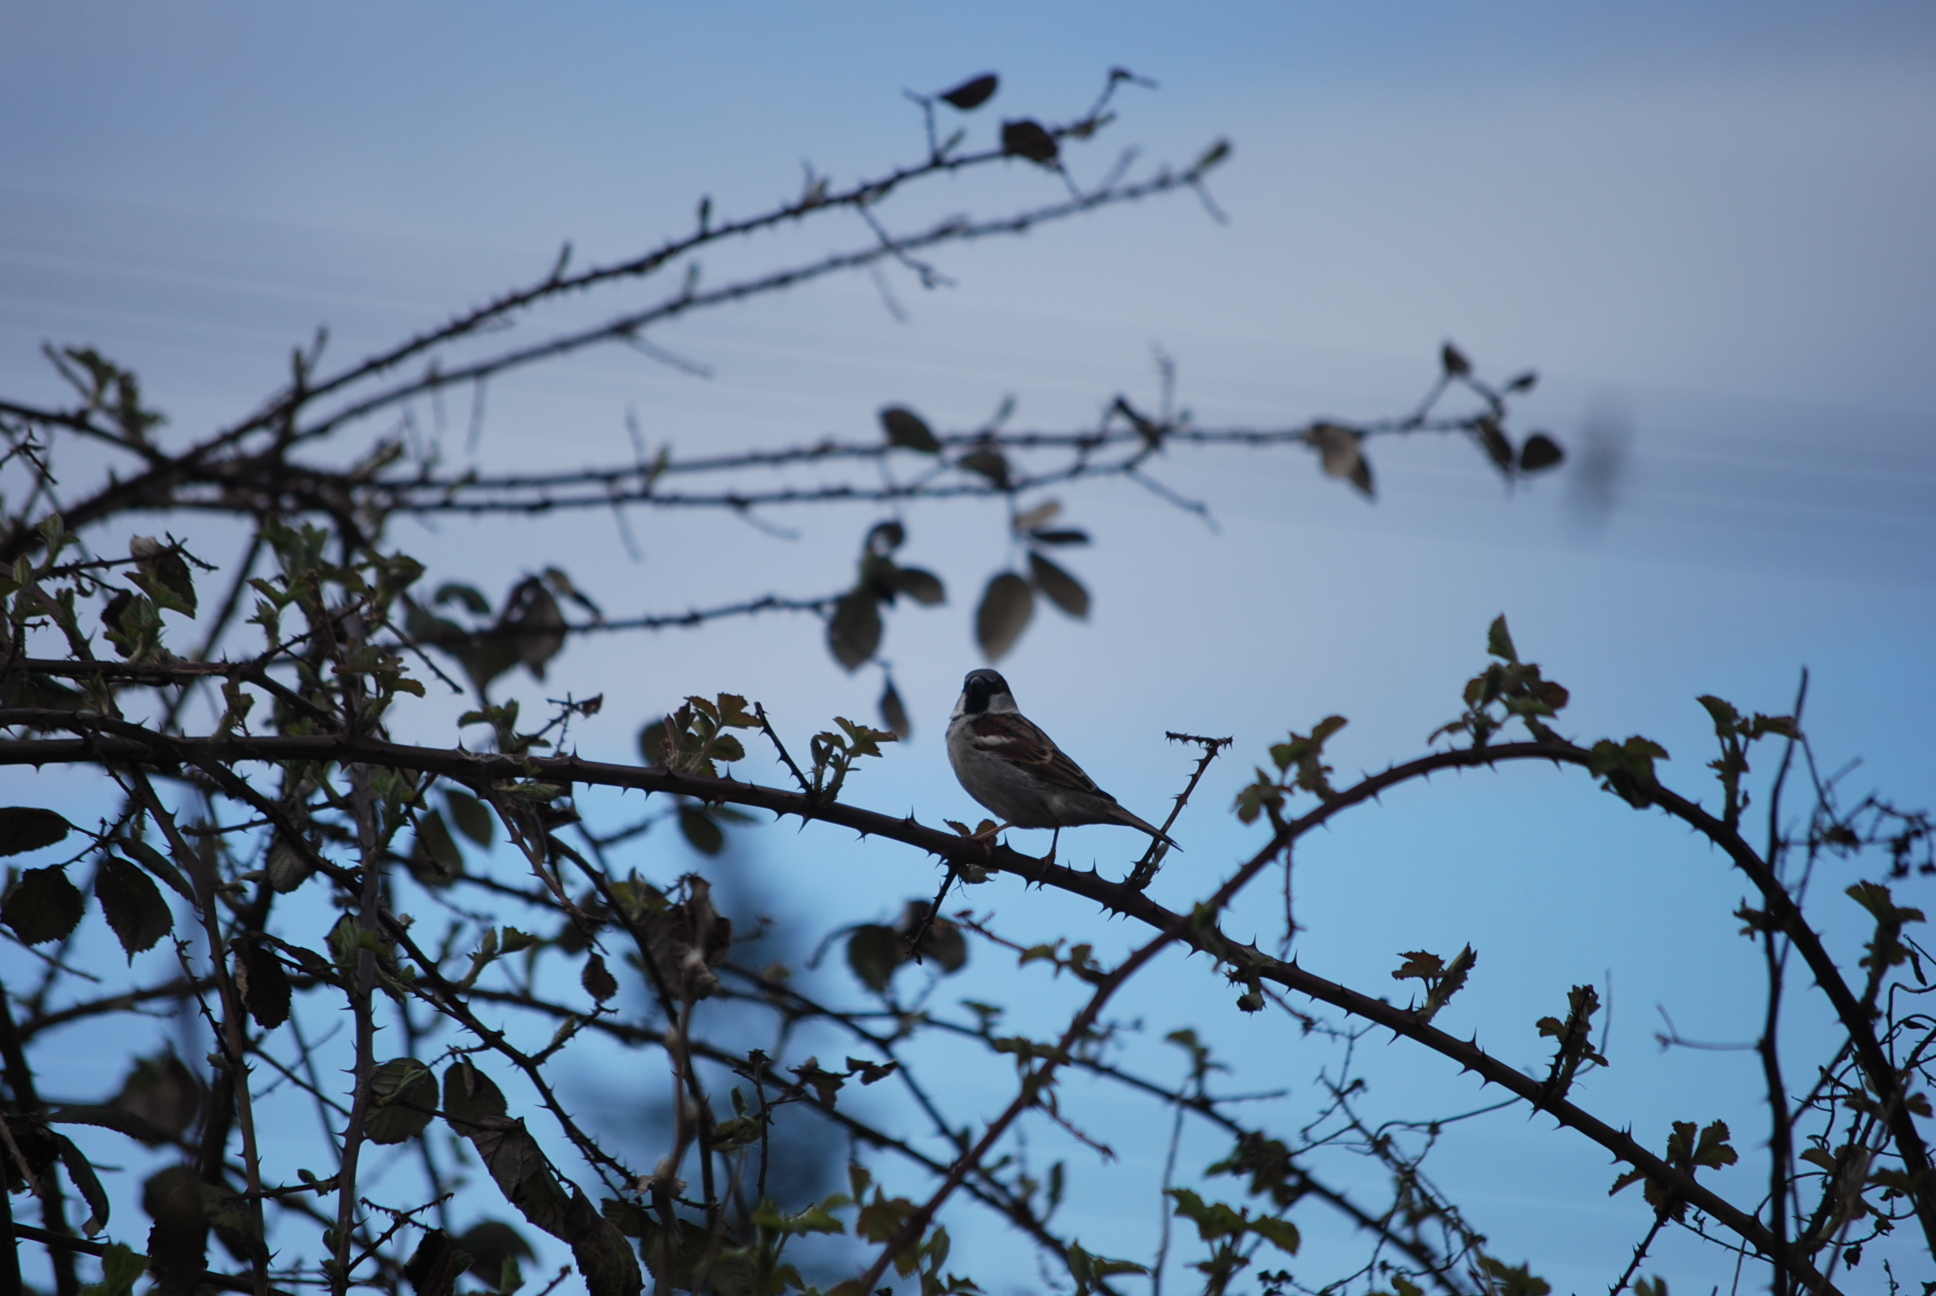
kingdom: Animalia
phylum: Chordata
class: Aves
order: Passeriformes
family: Passeridae
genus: Passer
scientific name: Passer domesticus
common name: House sparrow
